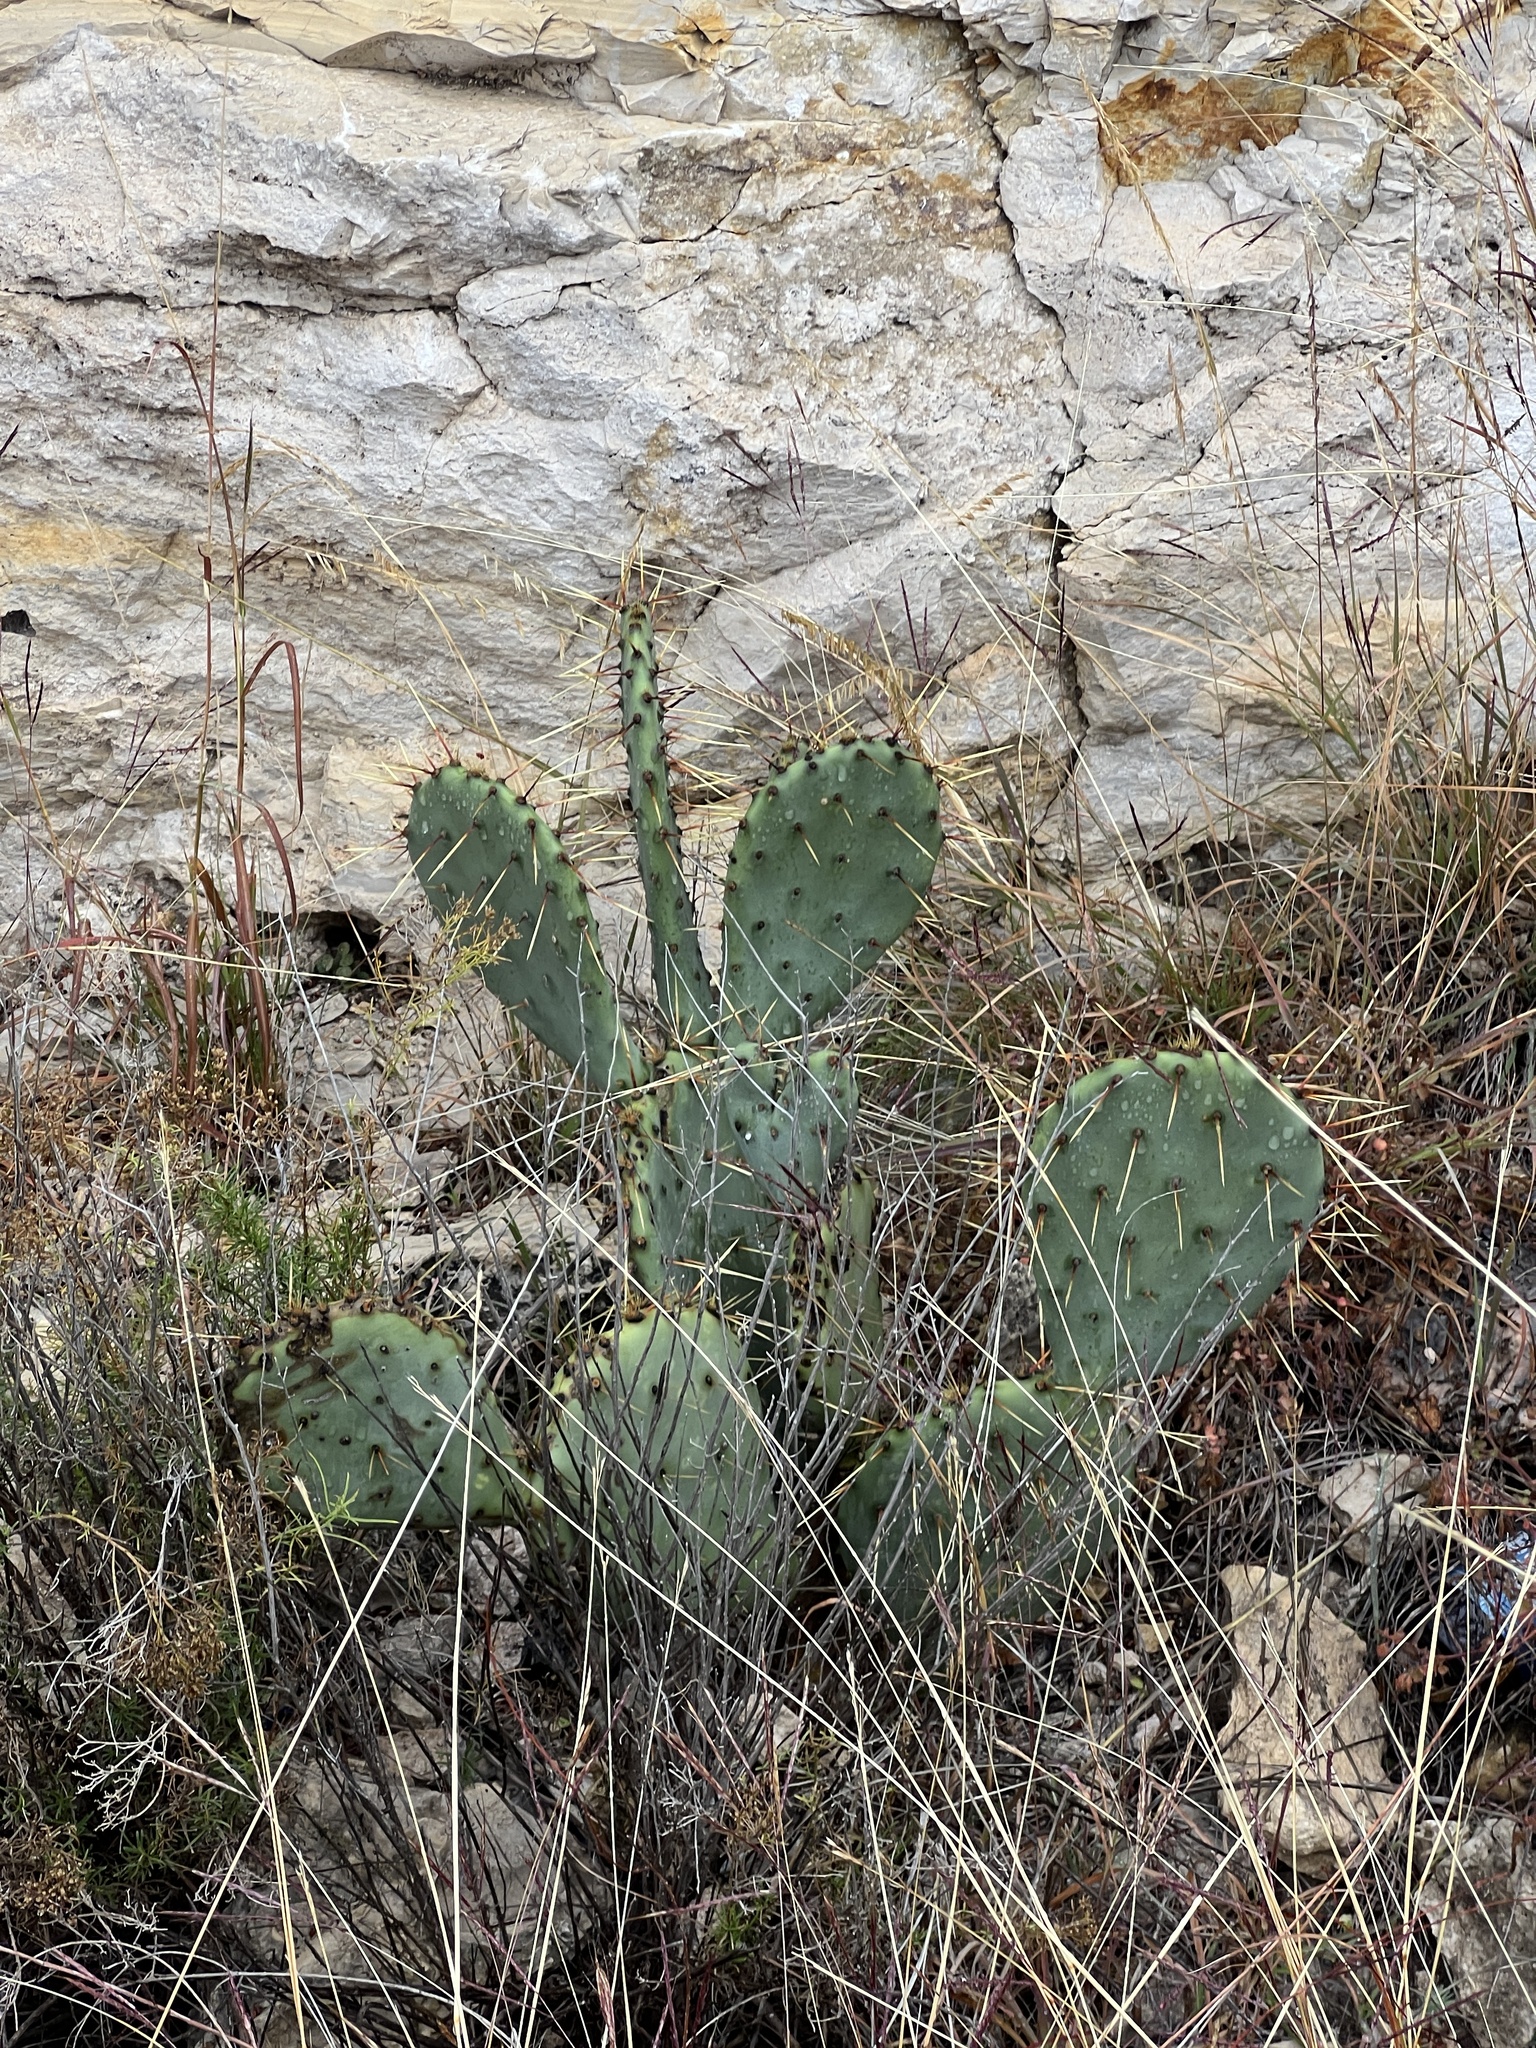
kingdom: Plantae
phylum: Tracheophyta
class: Magnoliopsida
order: Caryophyllales
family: Cactaceae
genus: Opuntia
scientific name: Opuntia engelmannii
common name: Cactus-apple
